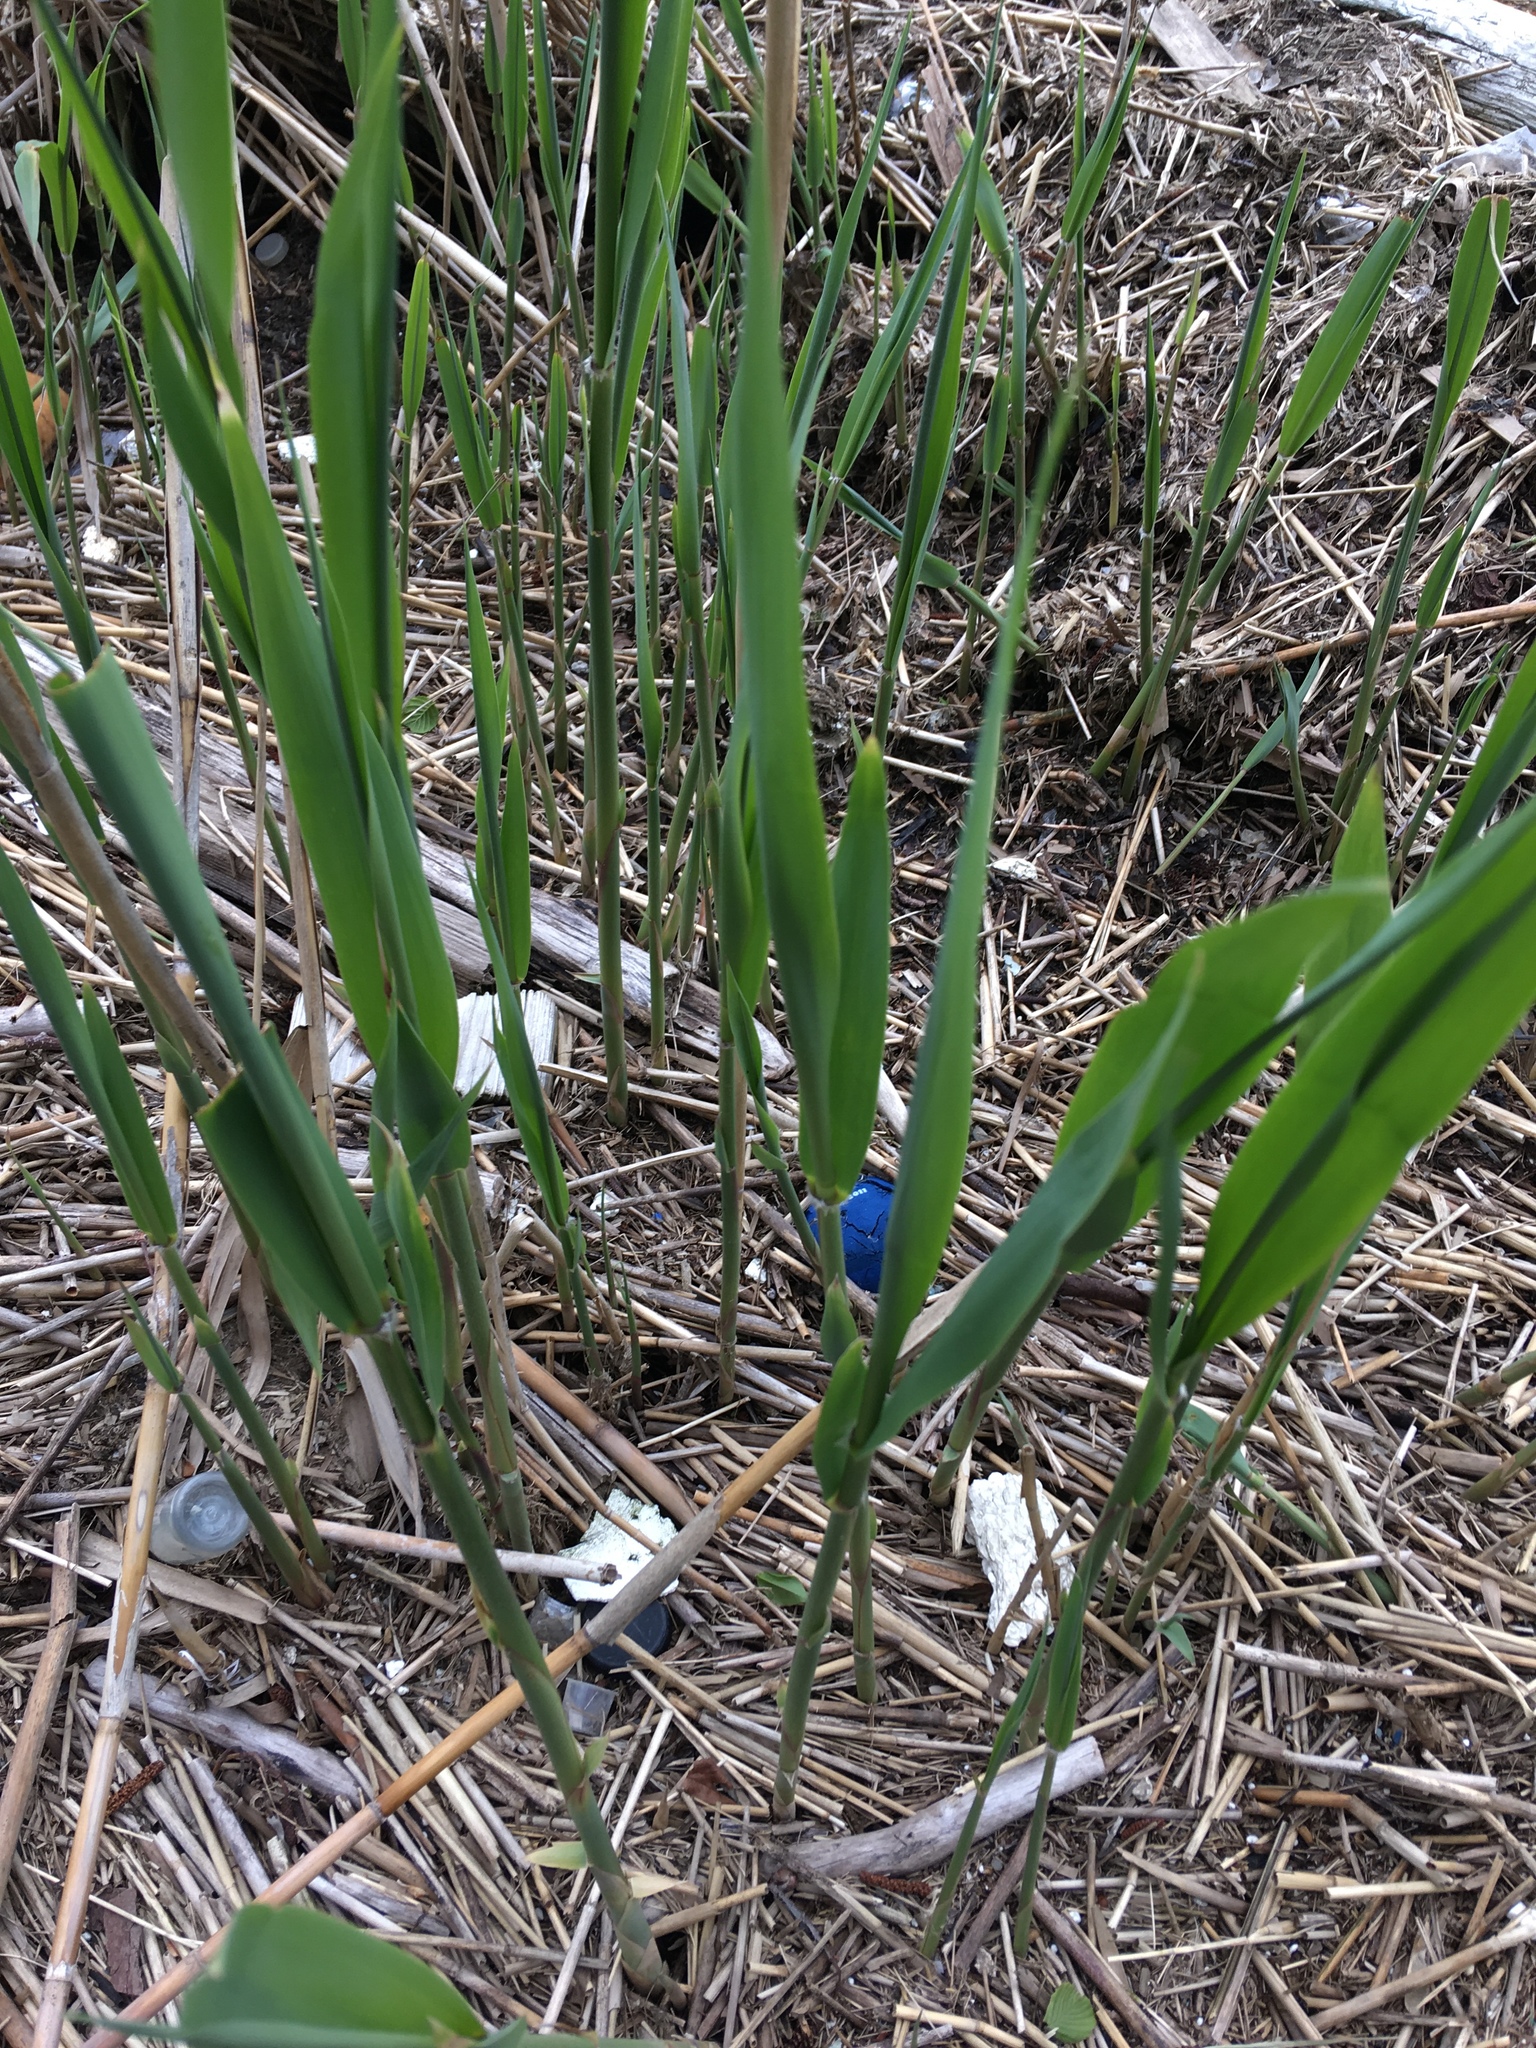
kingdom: Plantae
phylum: Tracheophyta
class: Liliopsida
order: Poales
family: Poaceae
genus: Phragmites
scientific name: Phragmites australis
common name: Common reed
